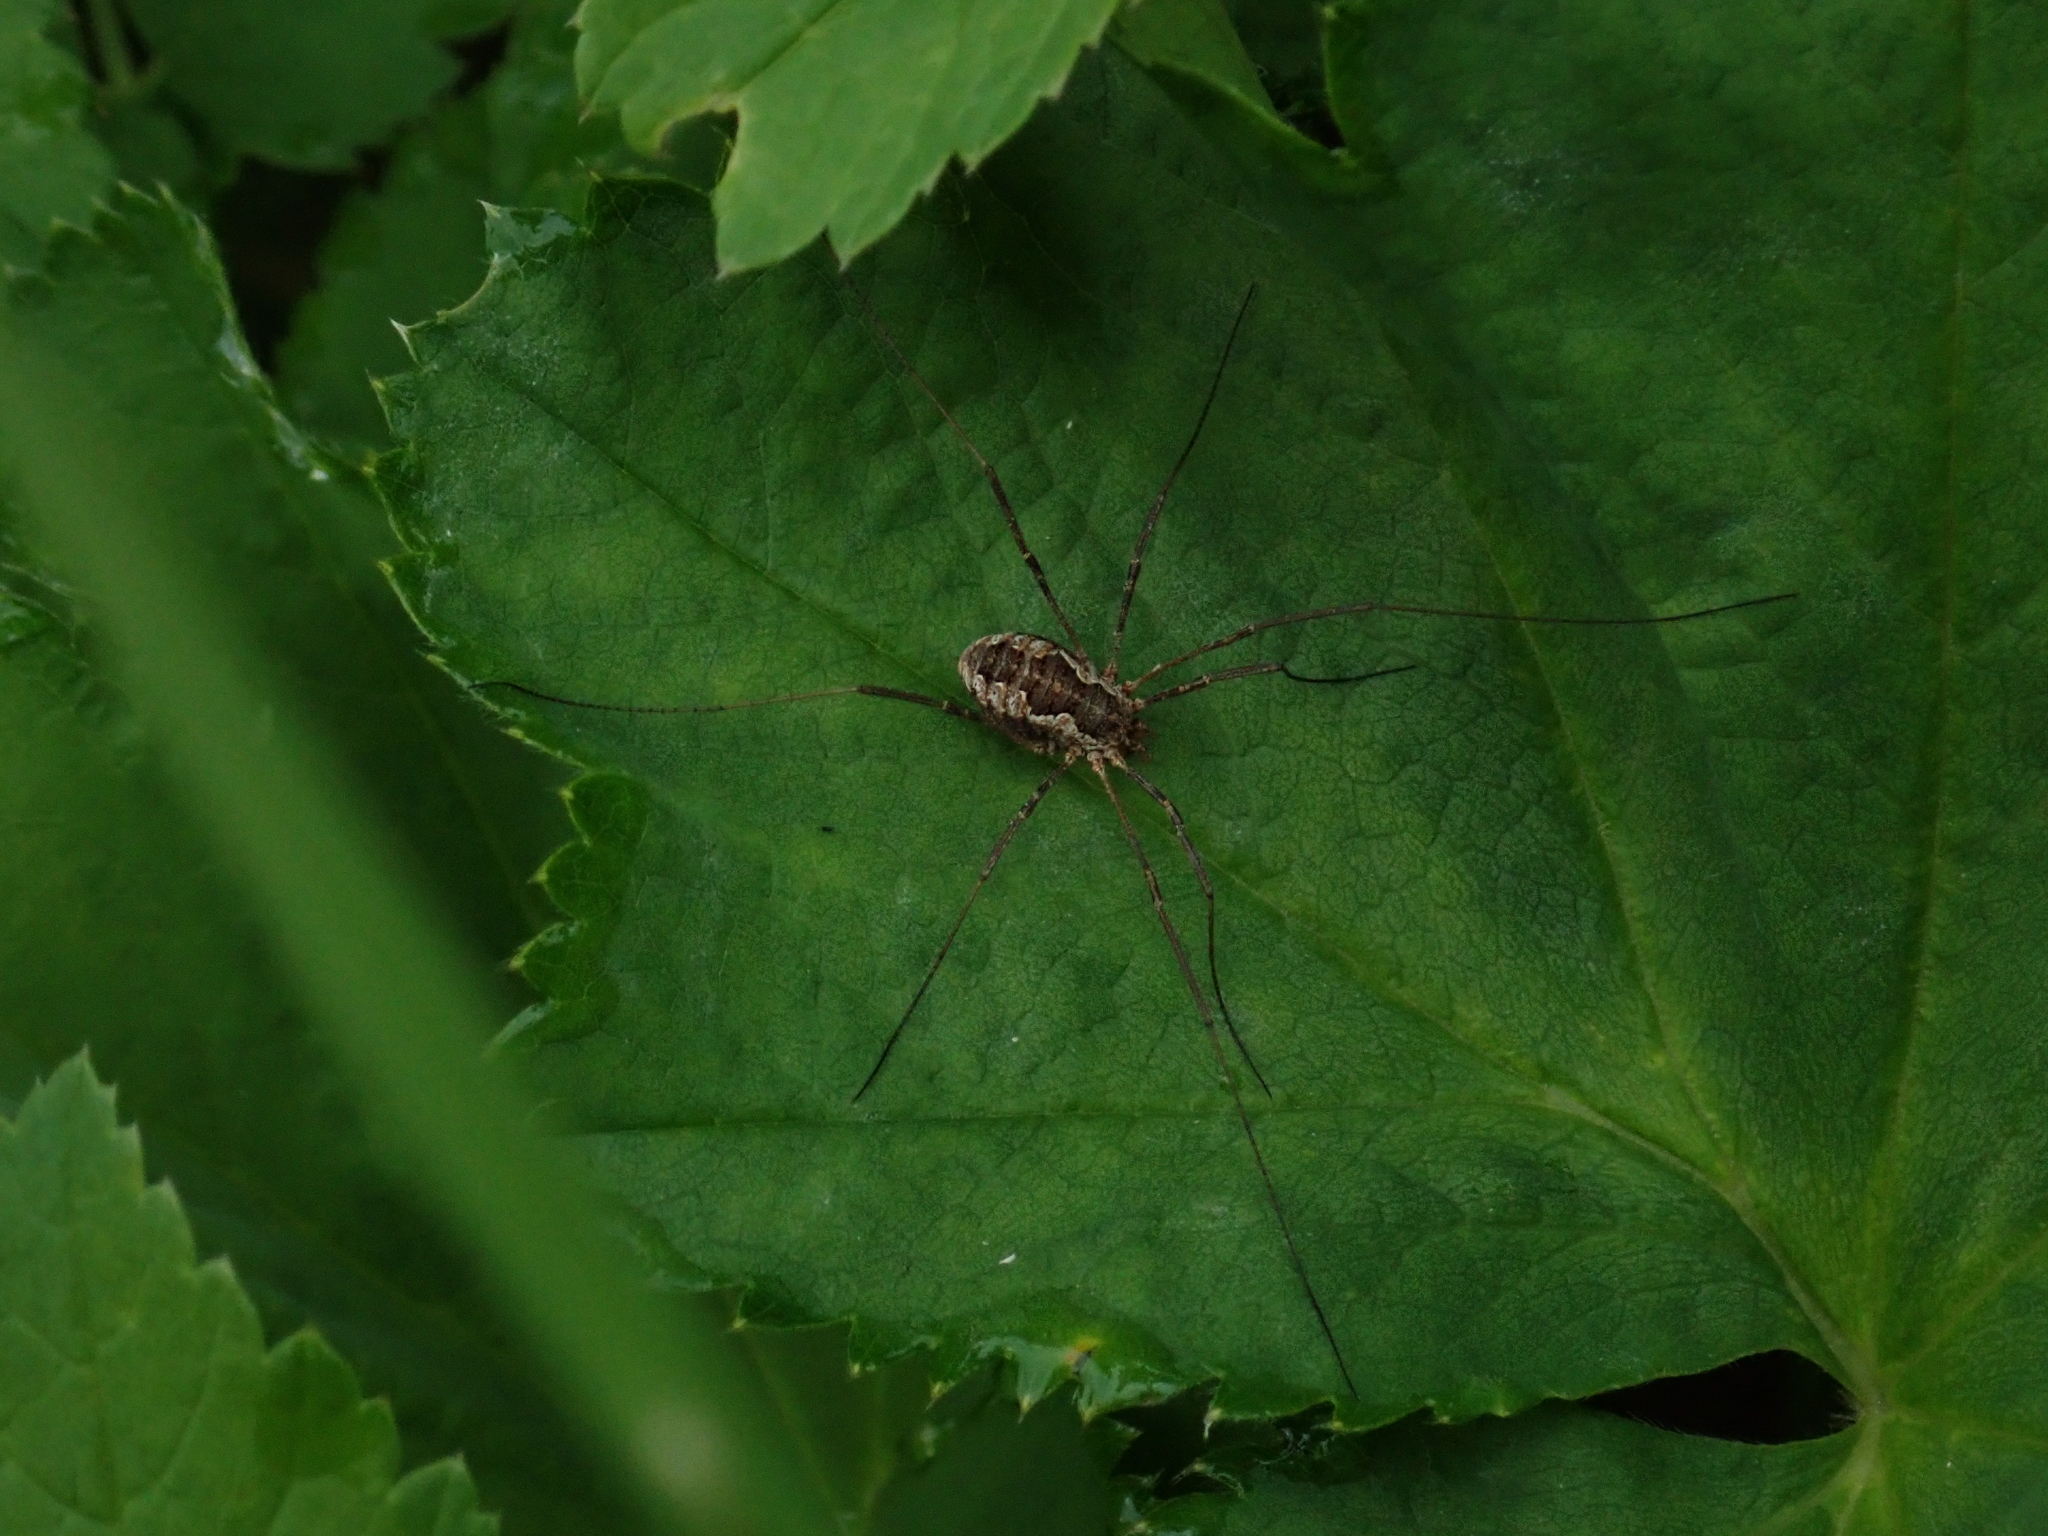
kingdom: Animalia
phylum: Arthropoda
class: Arachnida
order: Opiliones
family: Phalangiidae
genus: Phalangium
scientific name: Phalangium opilio
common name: Daddy longleg
